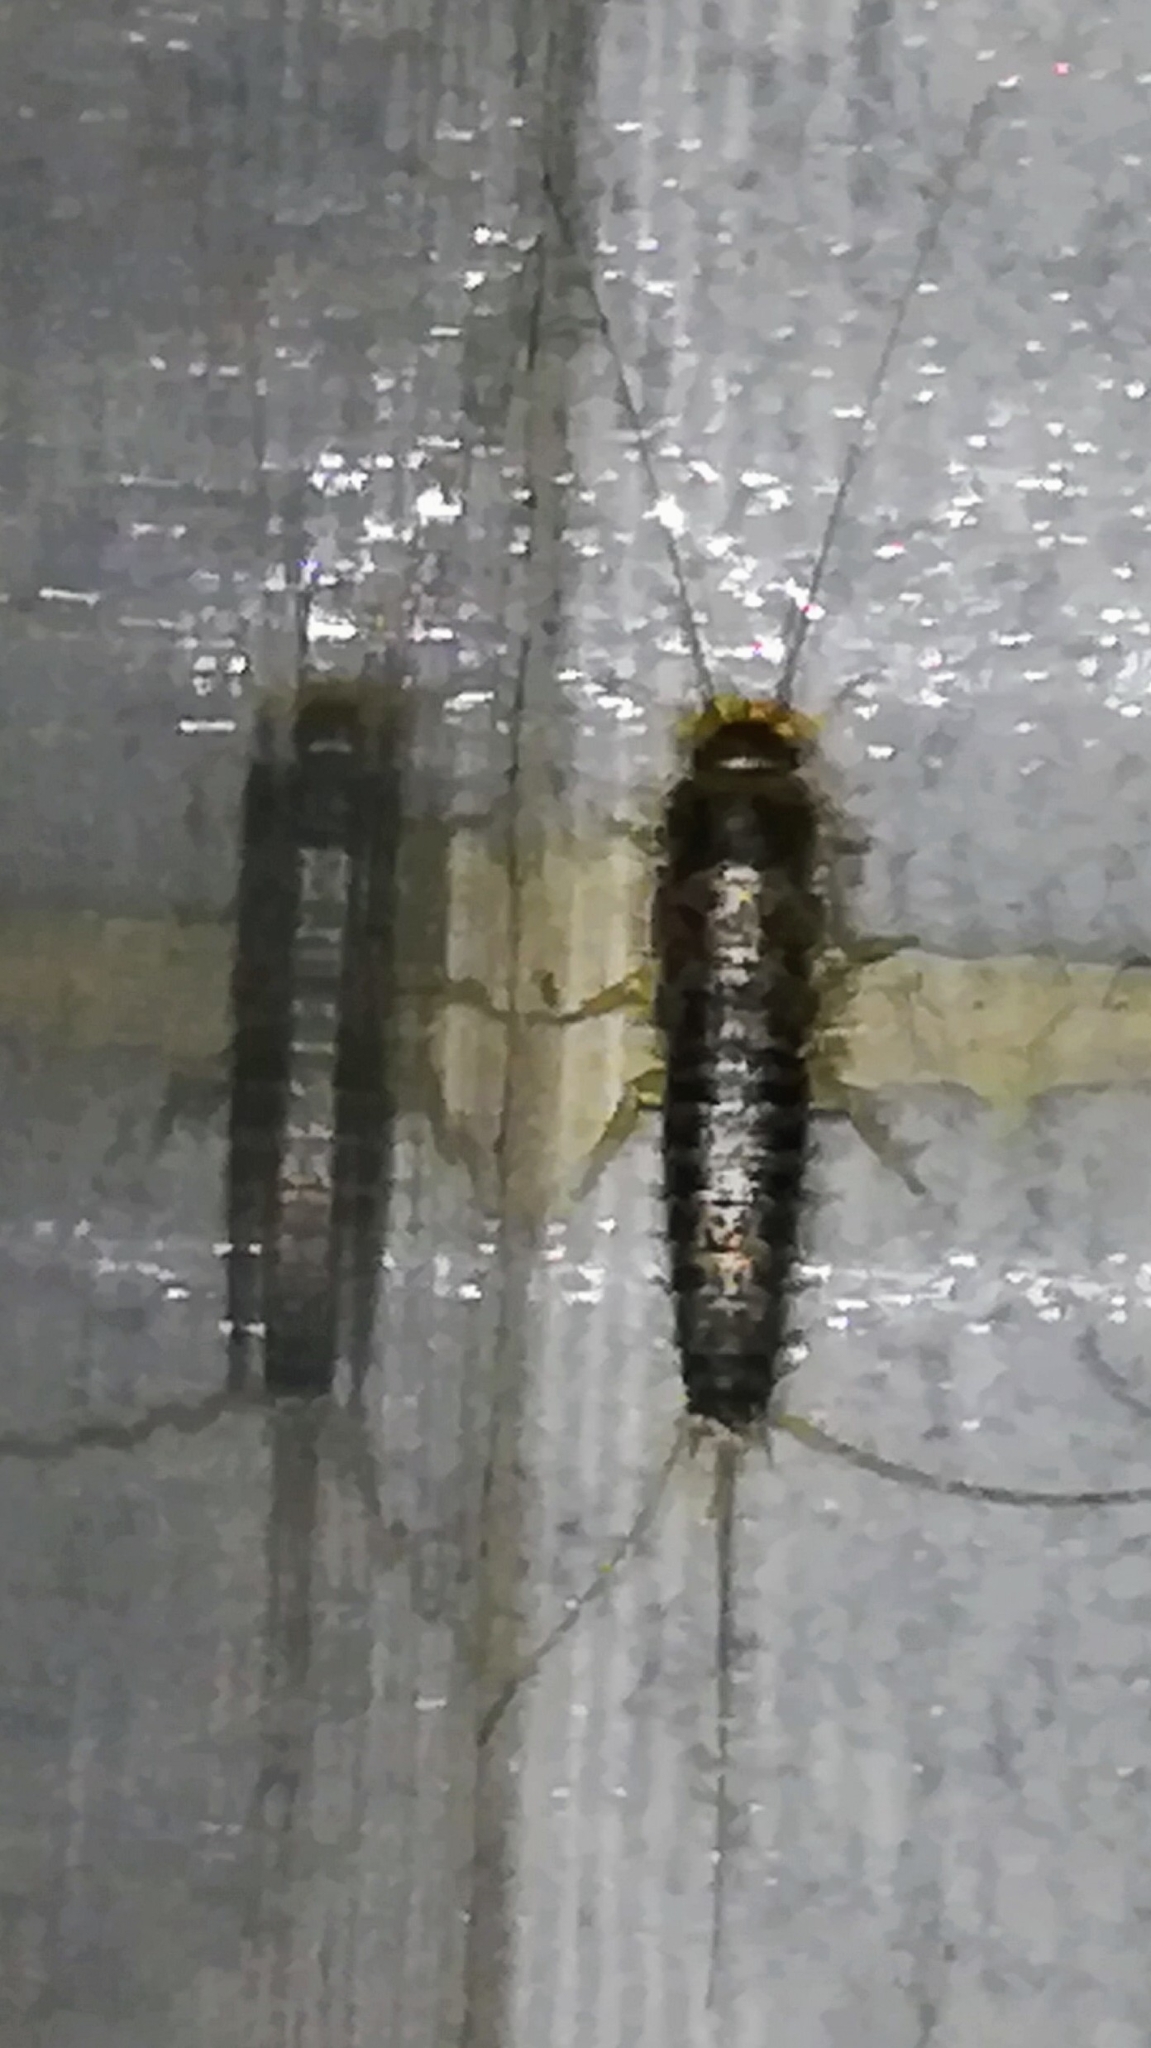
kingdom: Animalia
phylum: Arthropoda
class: Insecta
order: Zygentoma
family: Lepismatidae
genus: Ctenolepisma
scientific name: Ctenolepisma longicaudatum
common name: Silverfish
